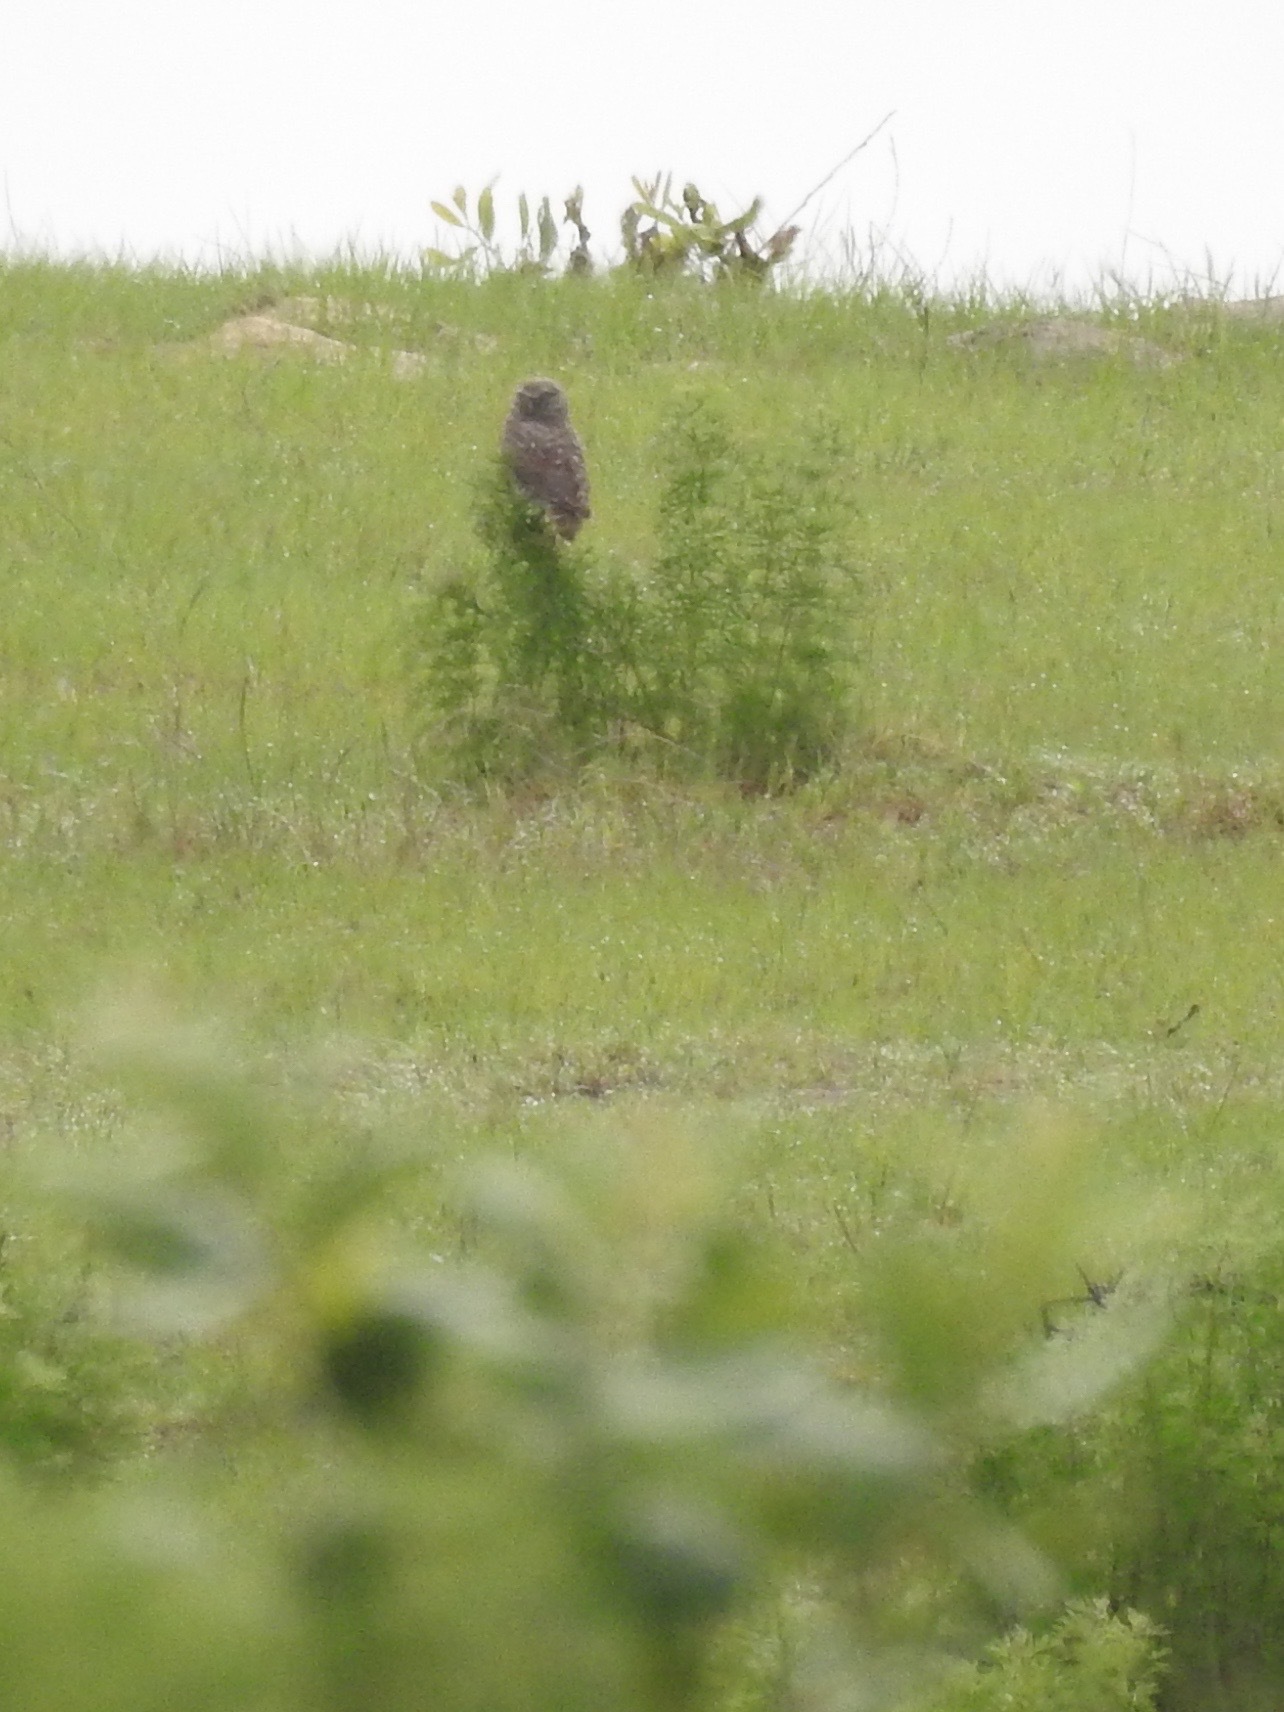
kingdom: Animalia
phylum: Chordata
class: Aves
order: Strigiformes
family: Strigidae
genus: Athene
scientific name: Athene cunicularia
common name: Burrowing owl
